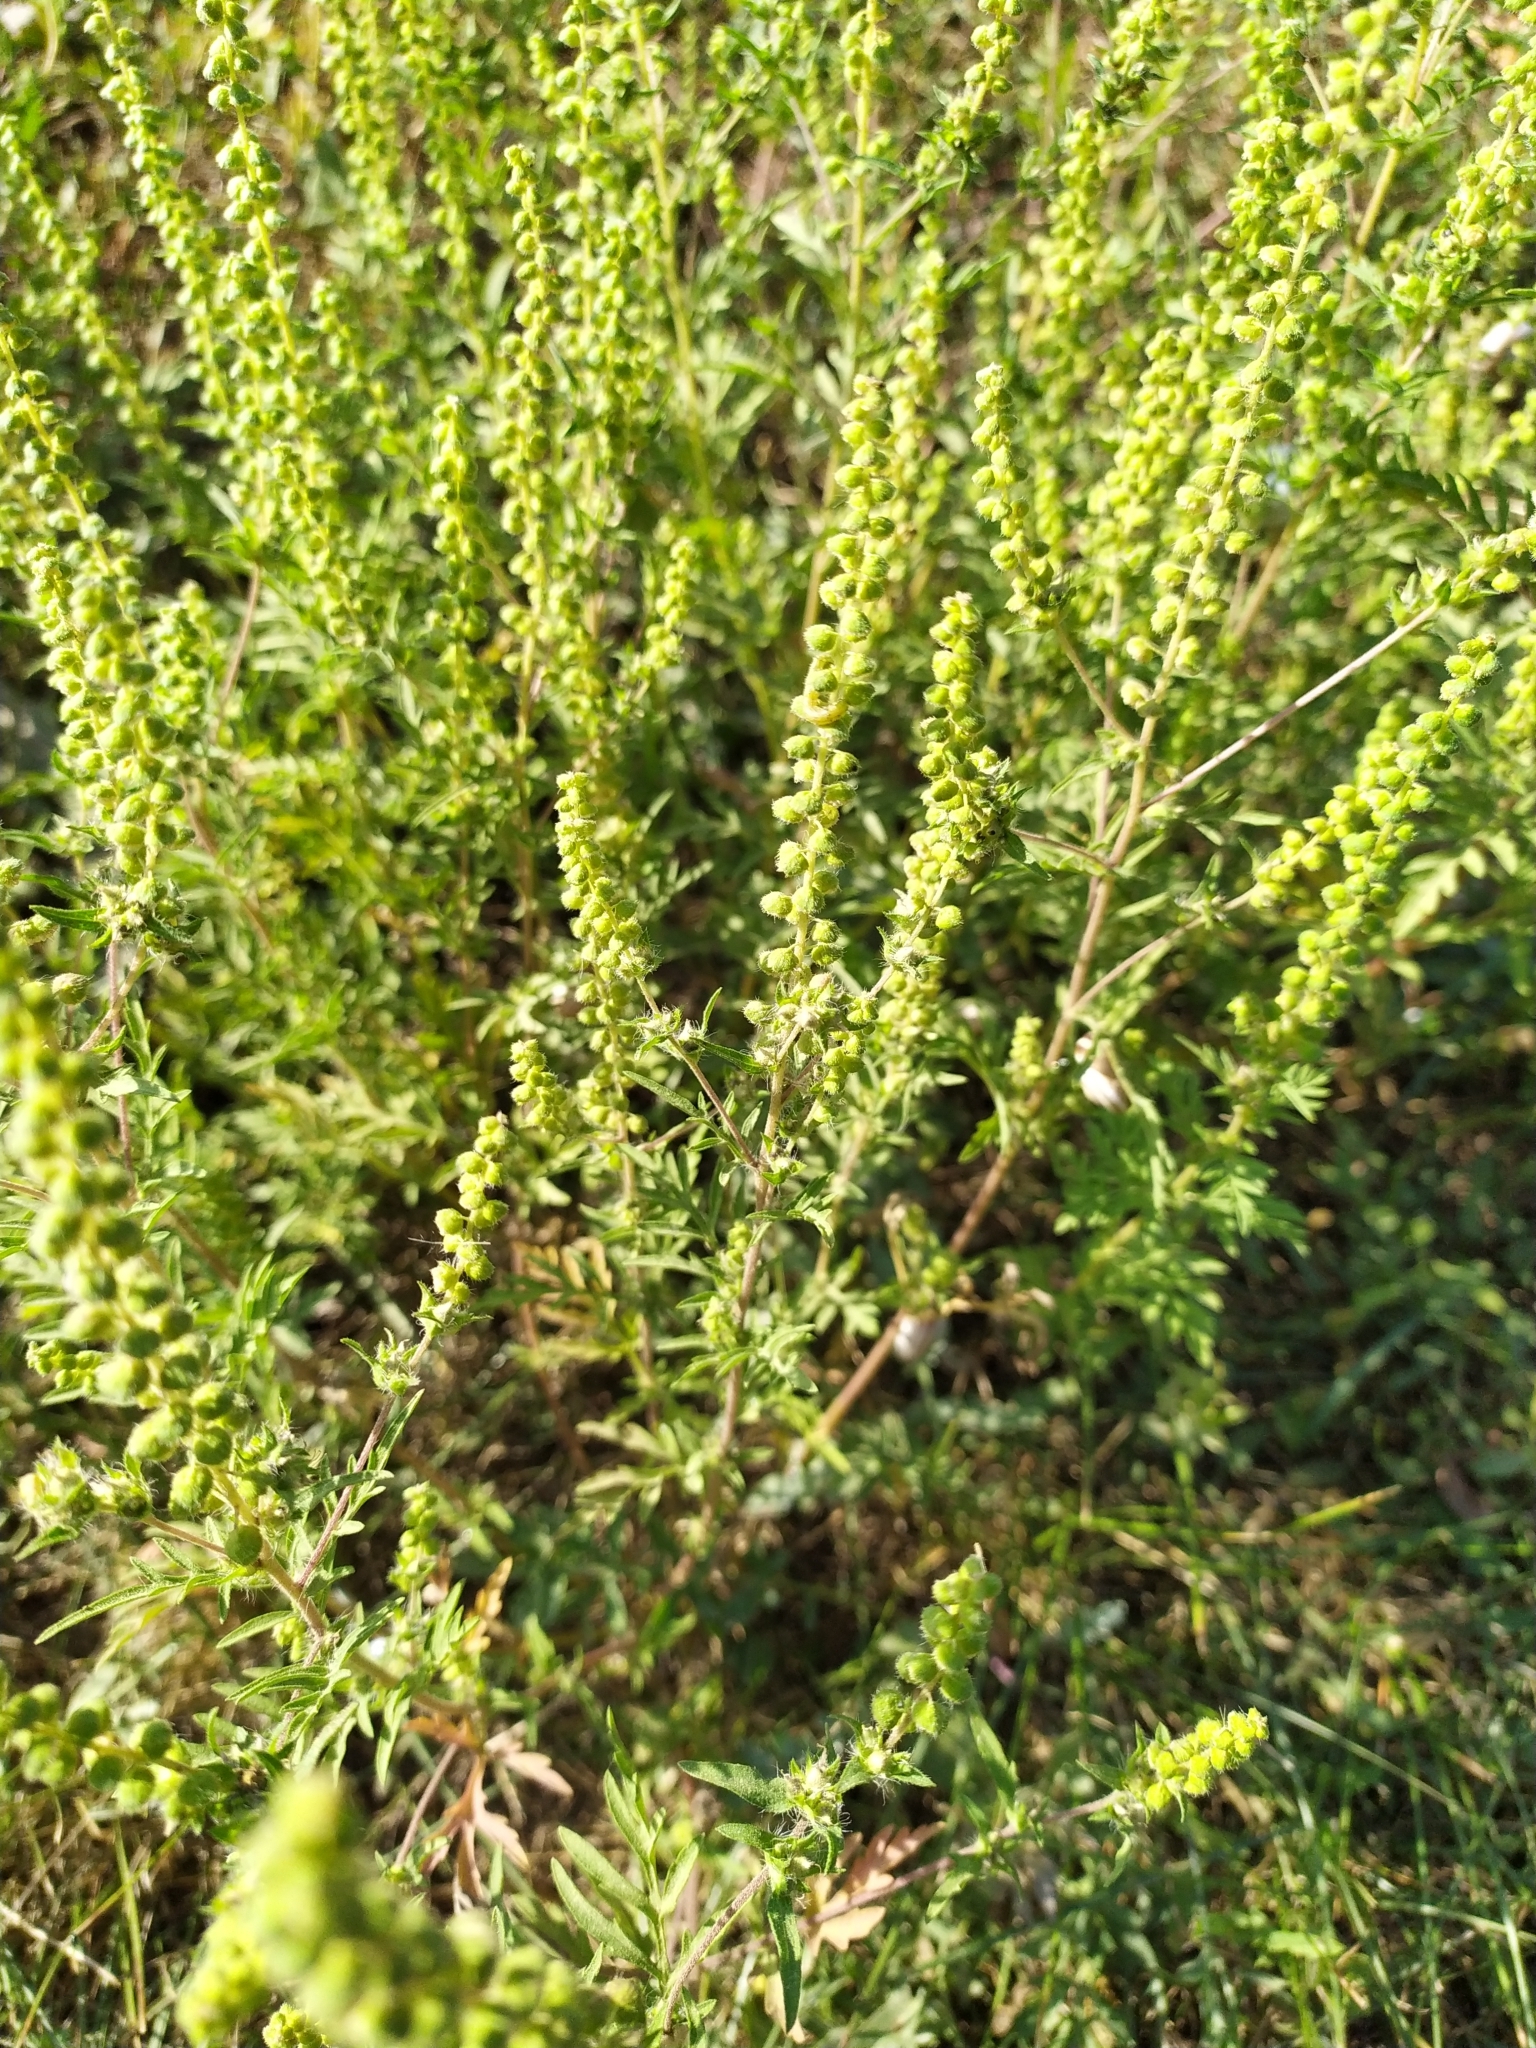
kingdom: Plantae
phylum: Tracheophyta
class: Magnoliopsida
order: Asterales
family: Asteraceae
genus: Ambrosia
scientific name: Ambrosia artemisiifolia
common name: Annual ragweed
